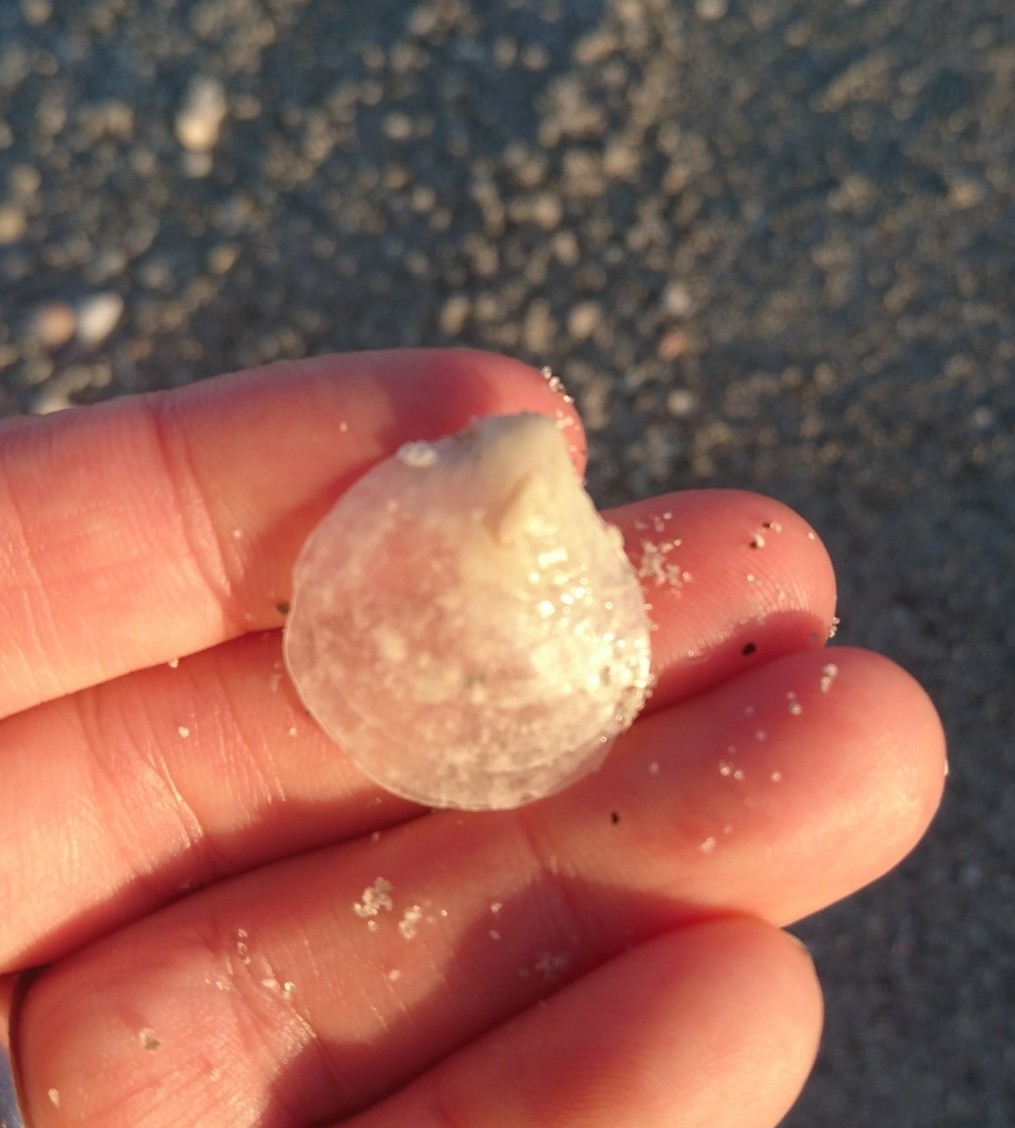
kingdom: Animalia
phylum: Mollusca
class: Bivalvia
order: Pectinida
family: Anomiidae
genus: Anomia
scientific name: Anomia simplex
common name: Common jingle shell
